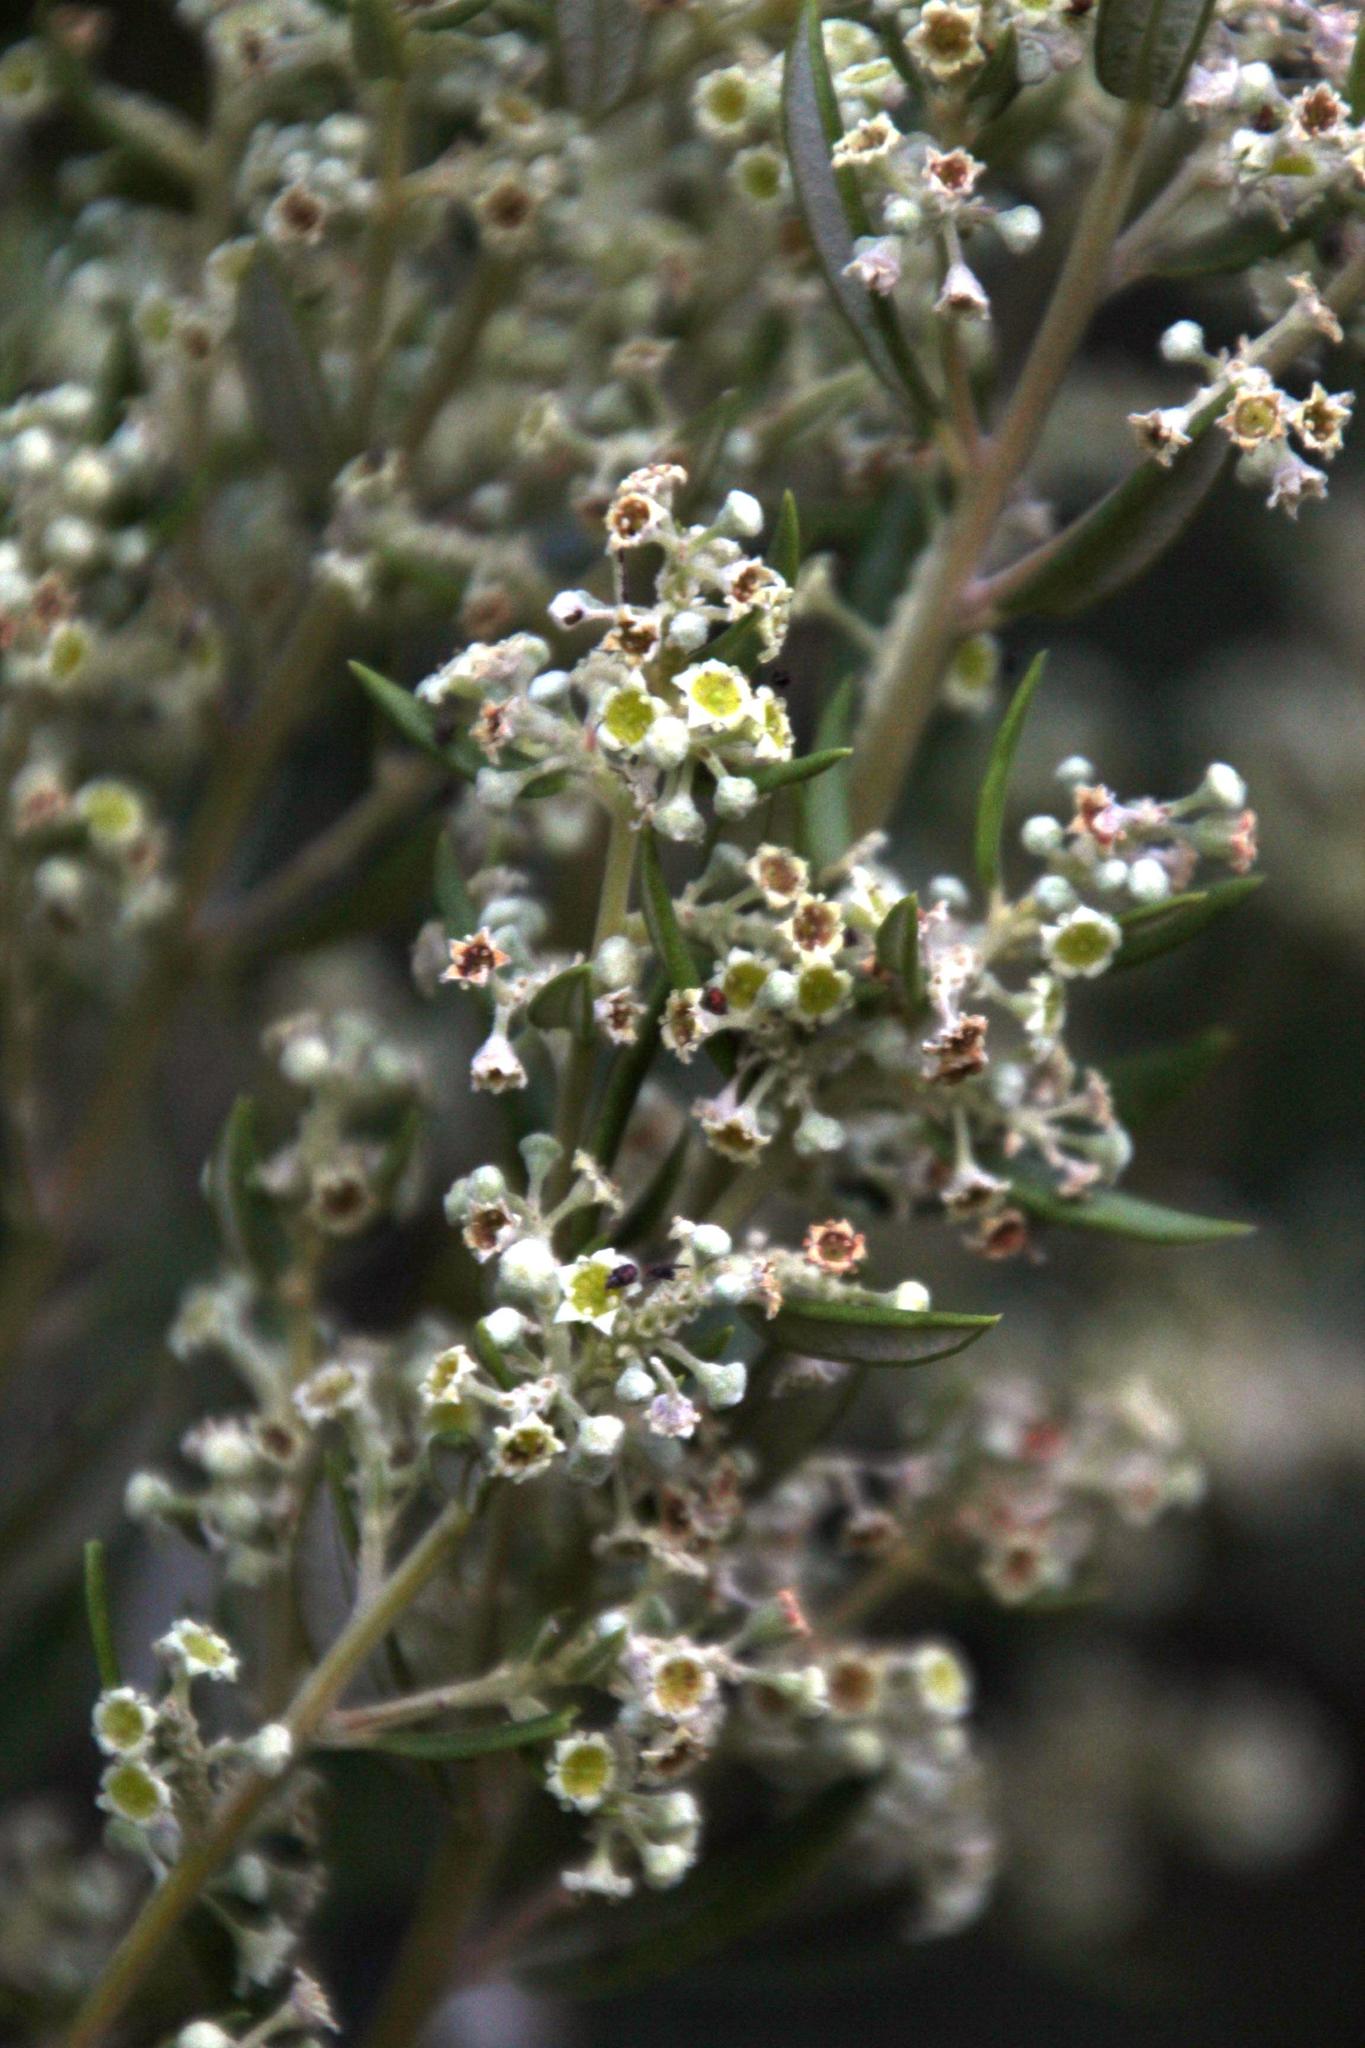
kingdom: Plantae
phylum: Tracheophyta
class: Magnoliopsida
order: Rosales
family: Rhamnaceae
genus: Phylica
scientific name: Phylica oleifolia
